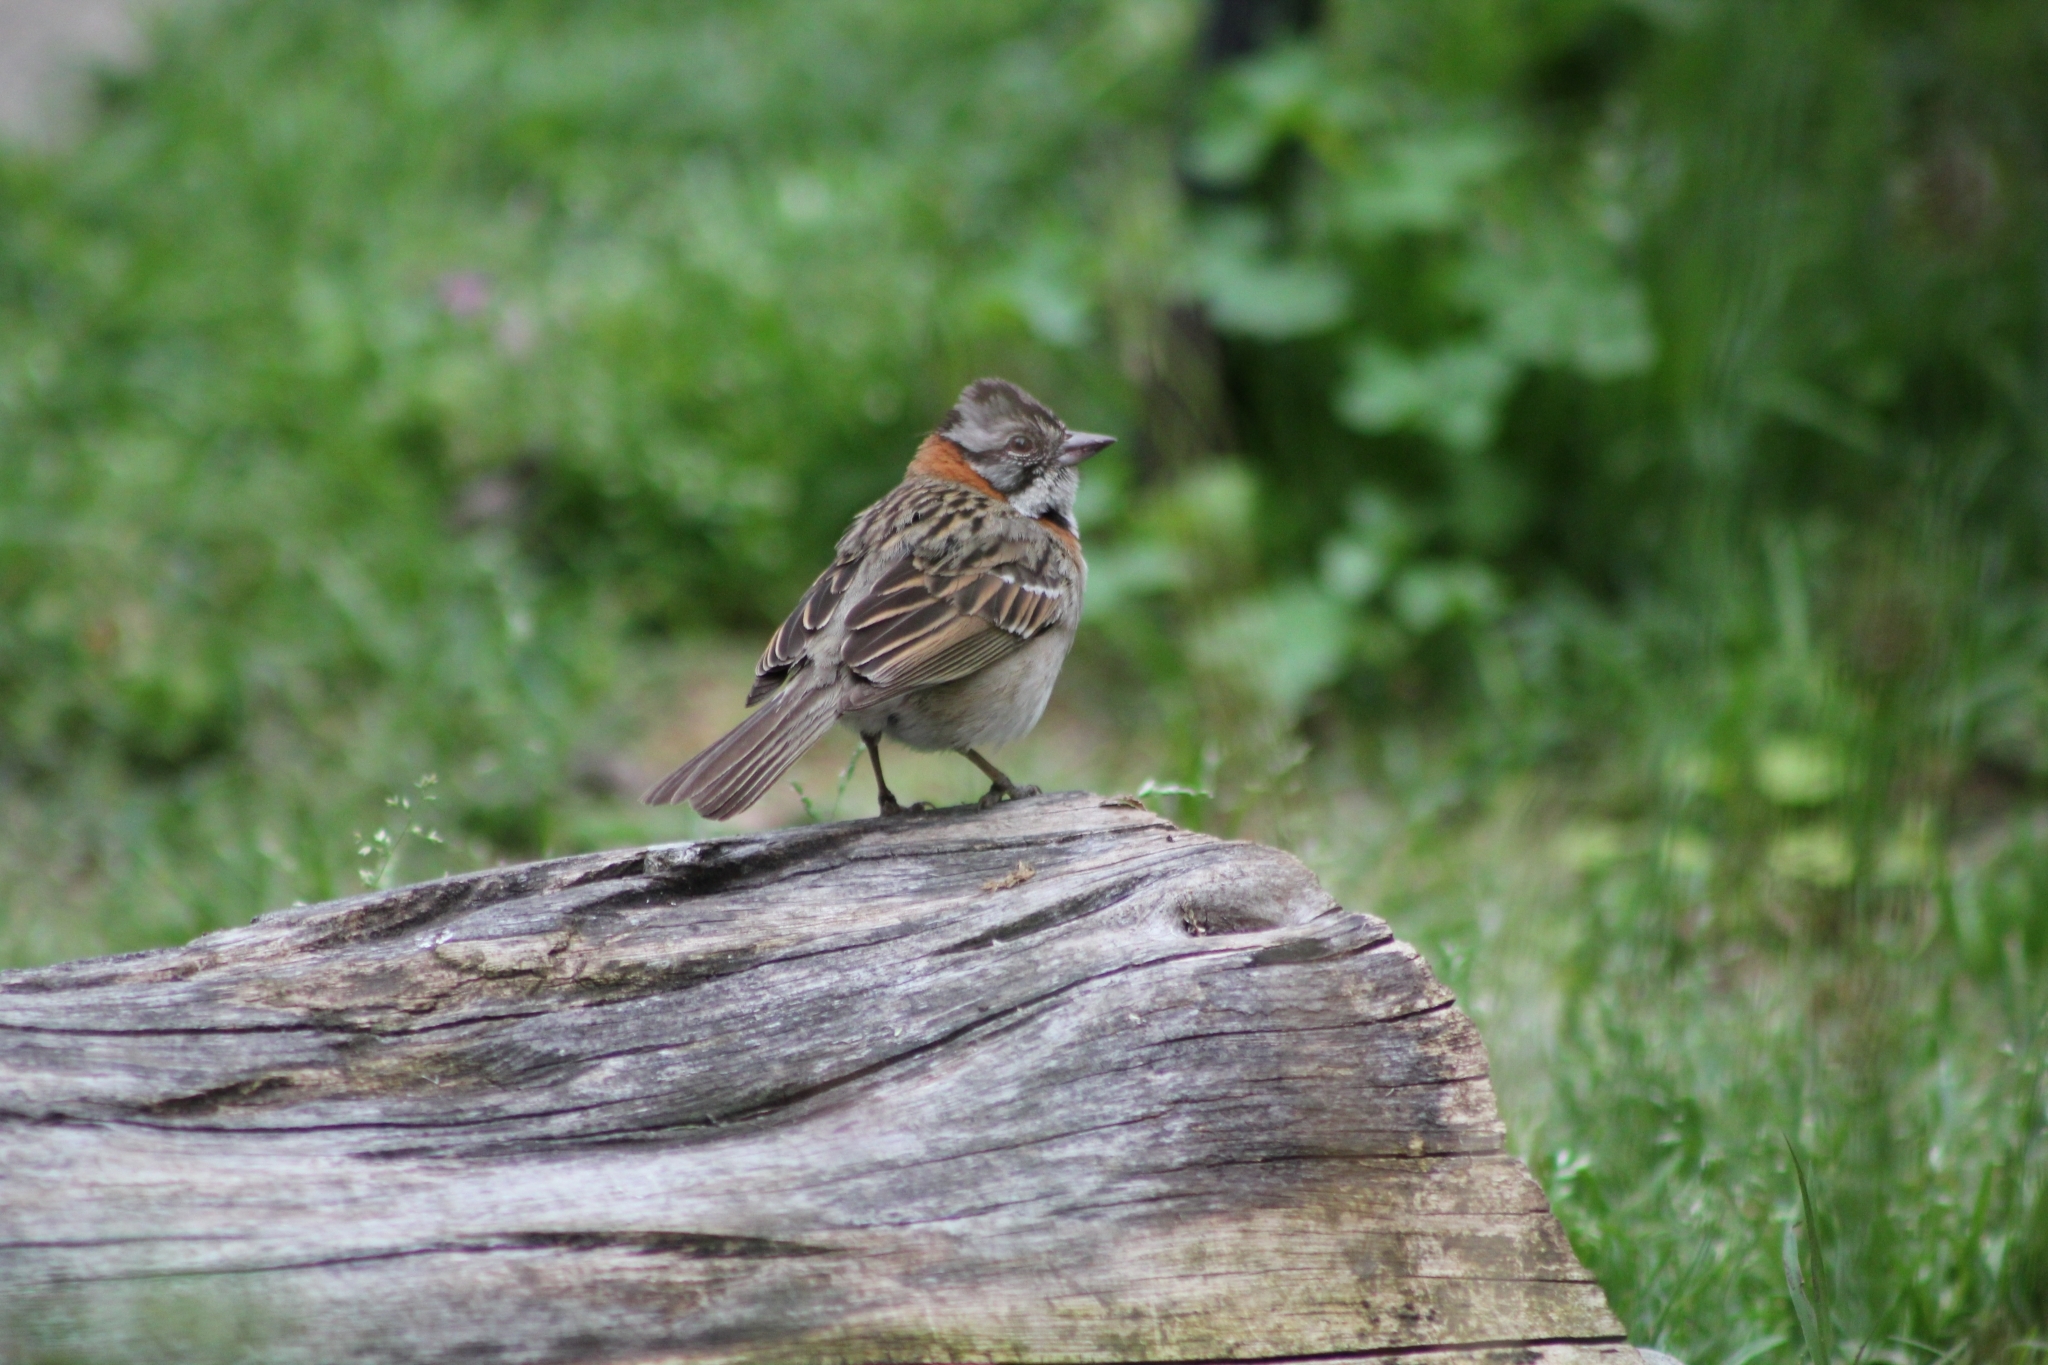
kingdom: Animalia
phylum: Chordata
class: Aves
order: Passeriformes
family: Passerellidae
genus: Zonotrichia
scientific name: Zonotrichia capensis
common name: Rufous-collared sparrow
